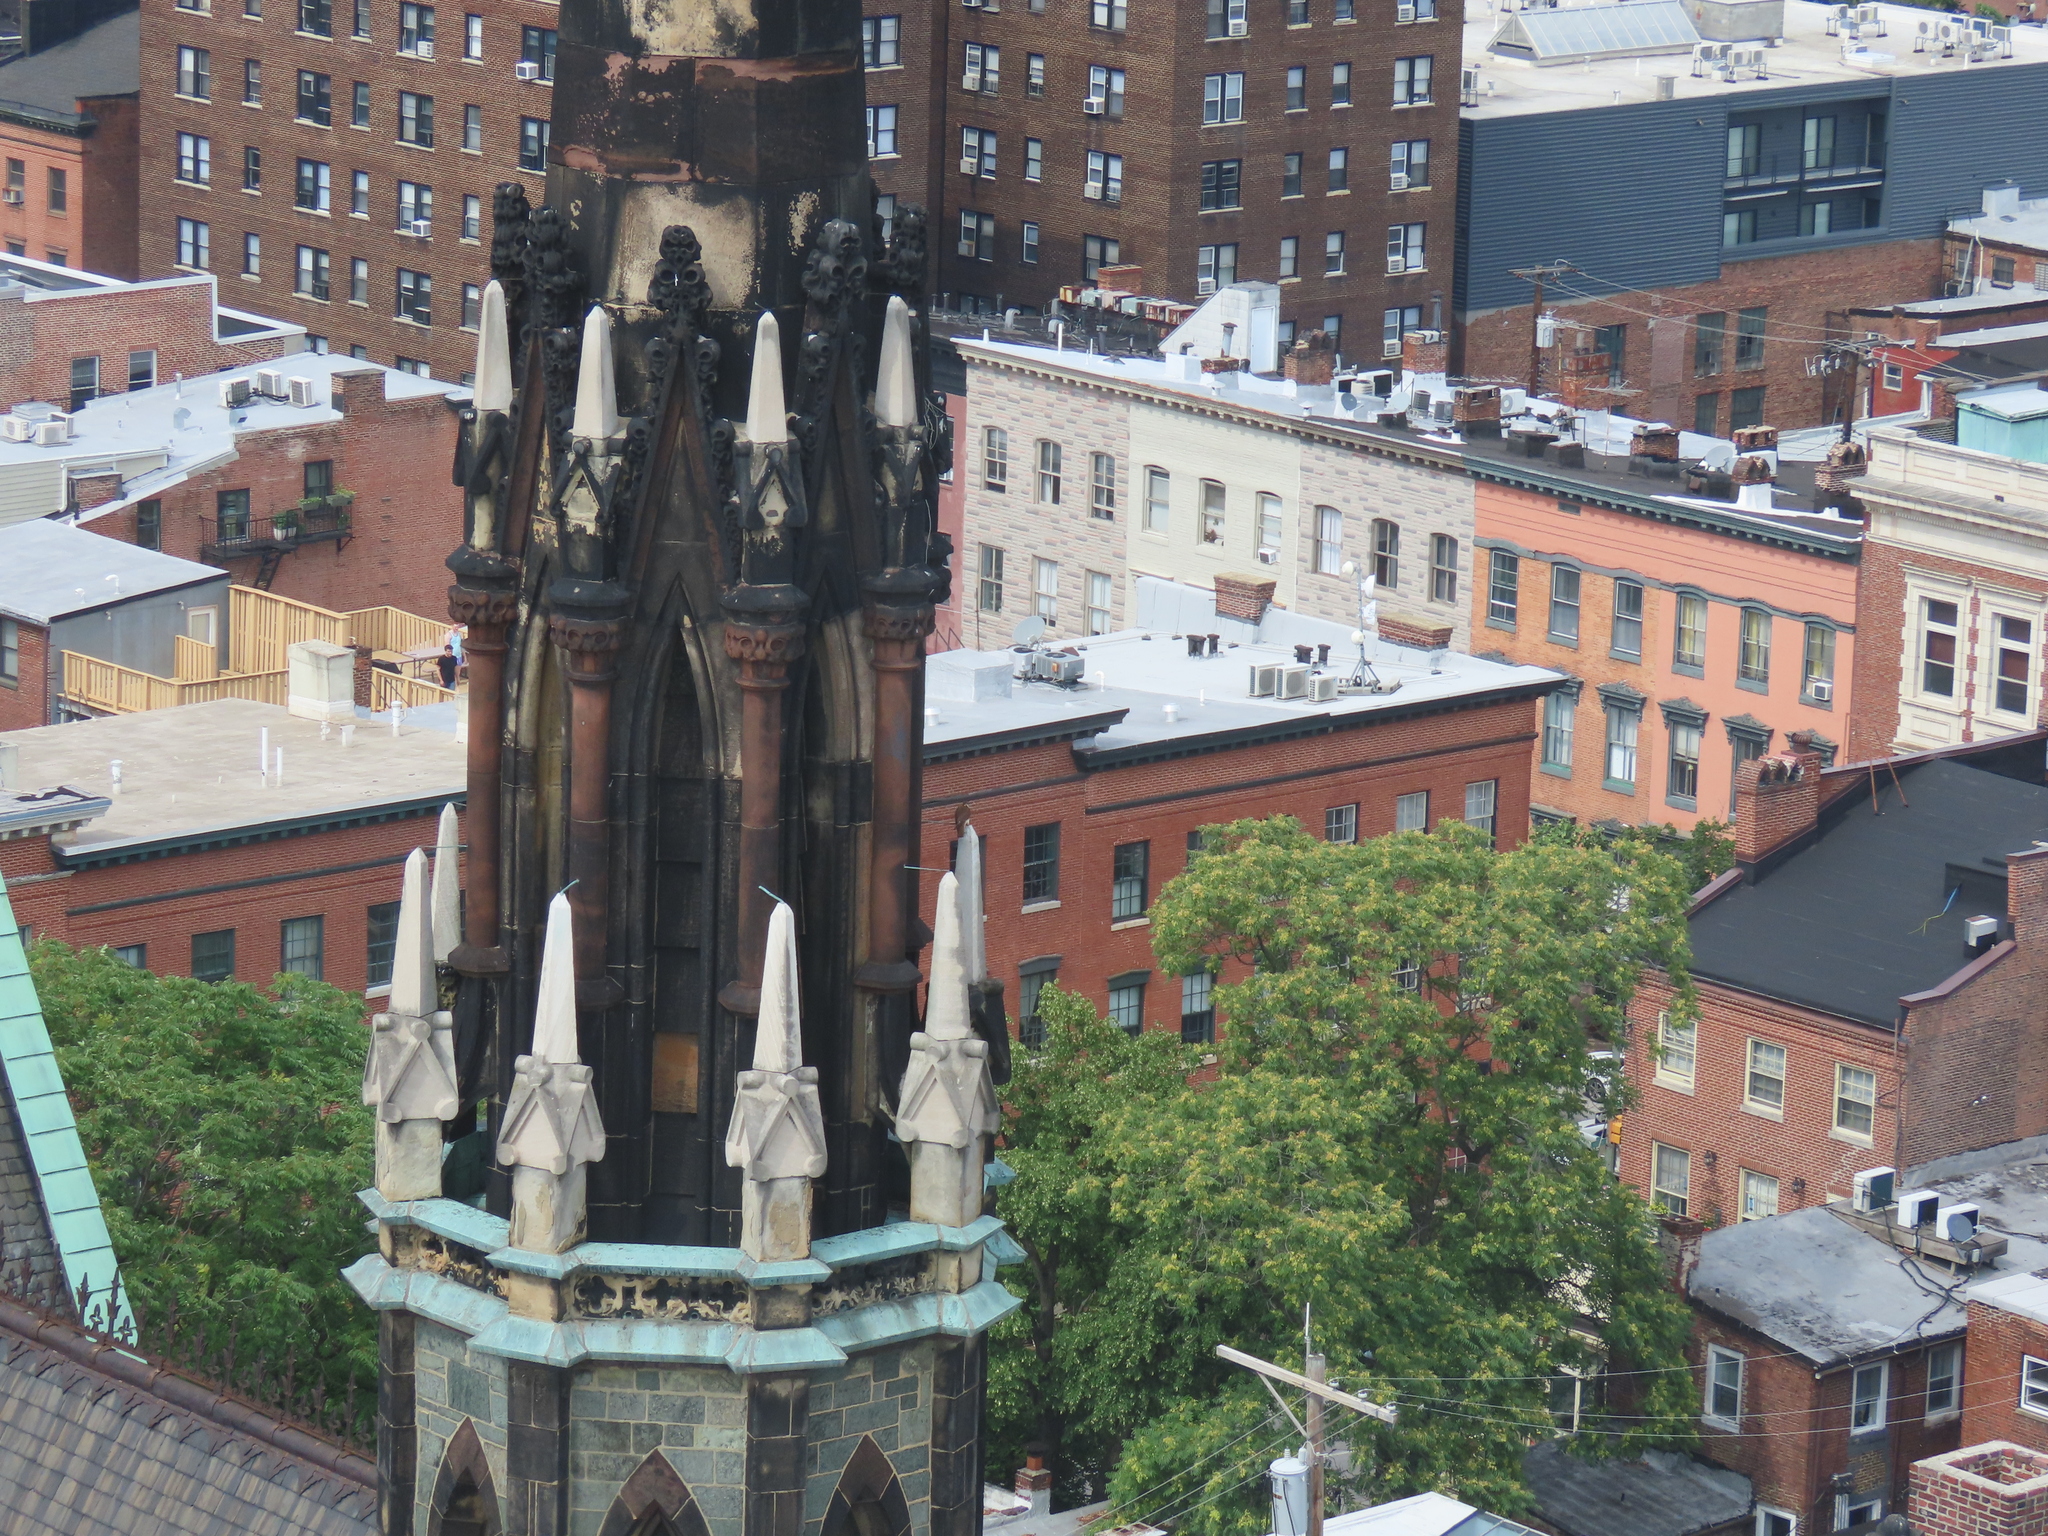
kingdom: Animalia
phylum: Chordata
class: Aves
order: Falconiformes
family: Falconidae
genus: Falco
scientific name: Falco sparverius
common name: American kestrel
